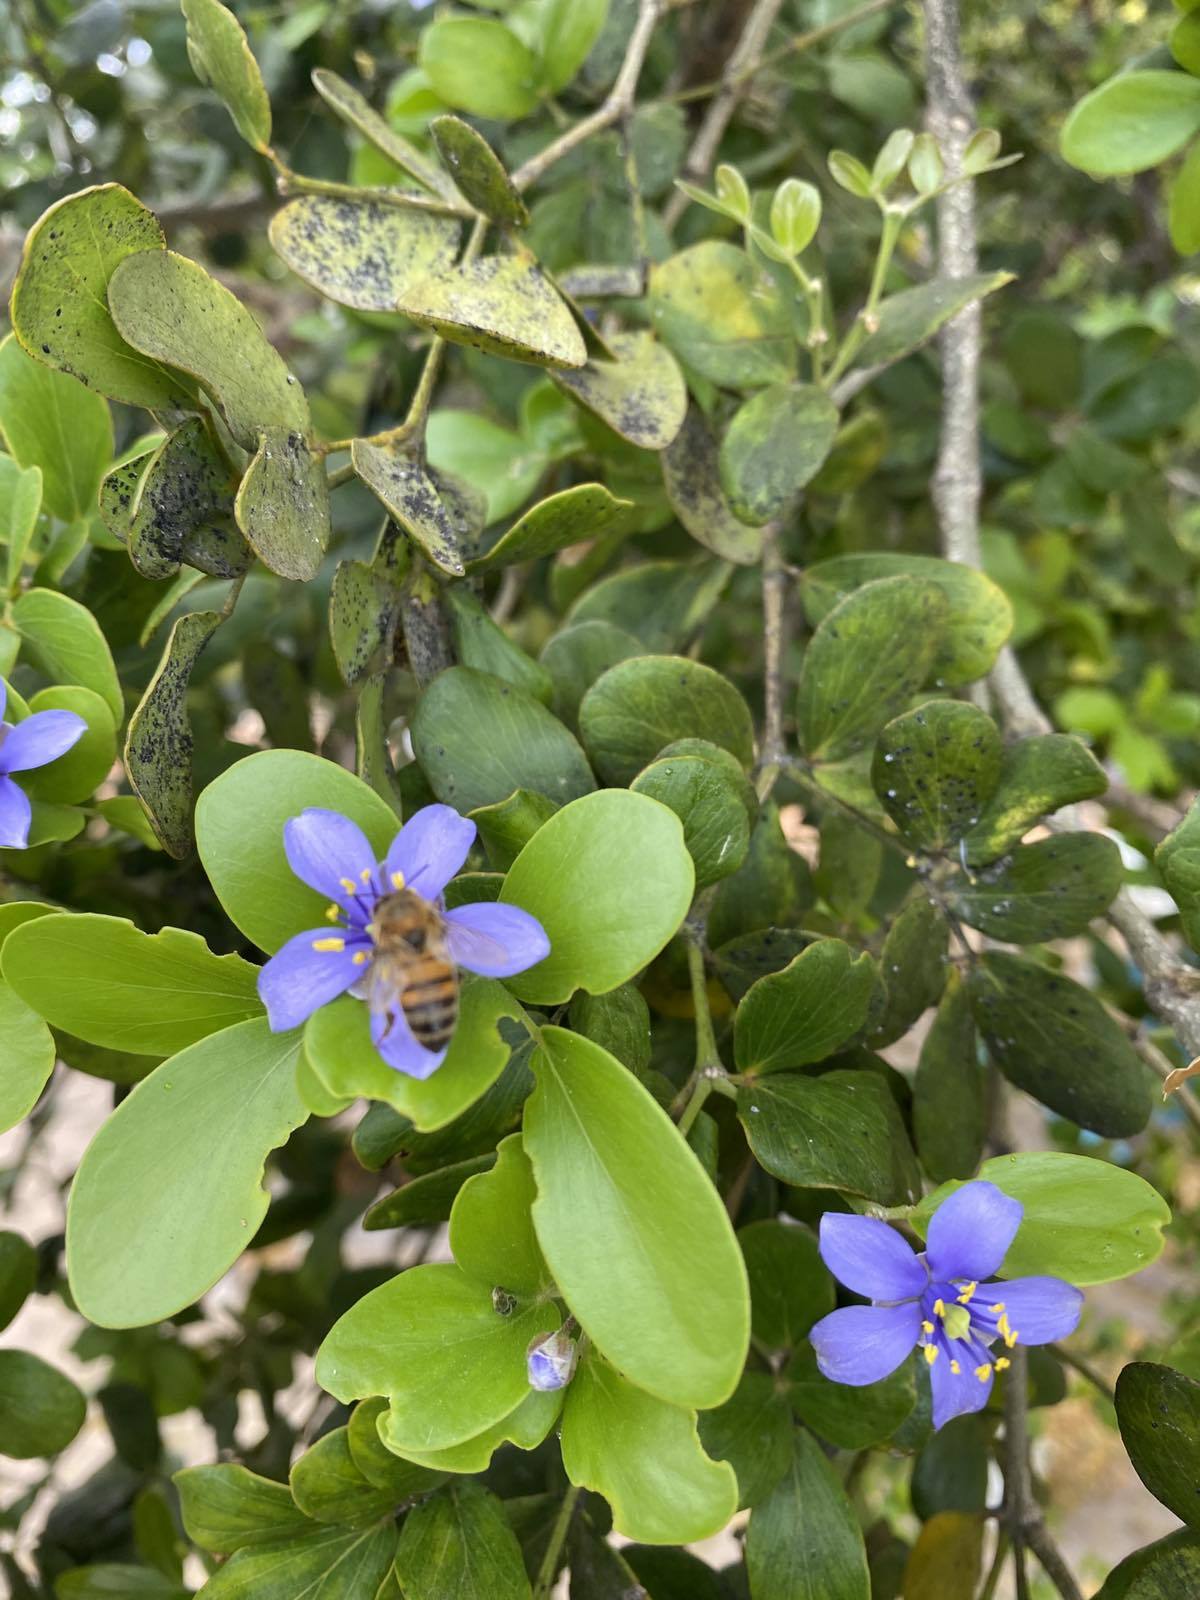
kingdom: Animalia
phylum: Arthropoda
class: Insecta
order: Hymenoptera
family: Apidae
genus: Apis
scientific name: Apis mellifera
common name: Honey bee
